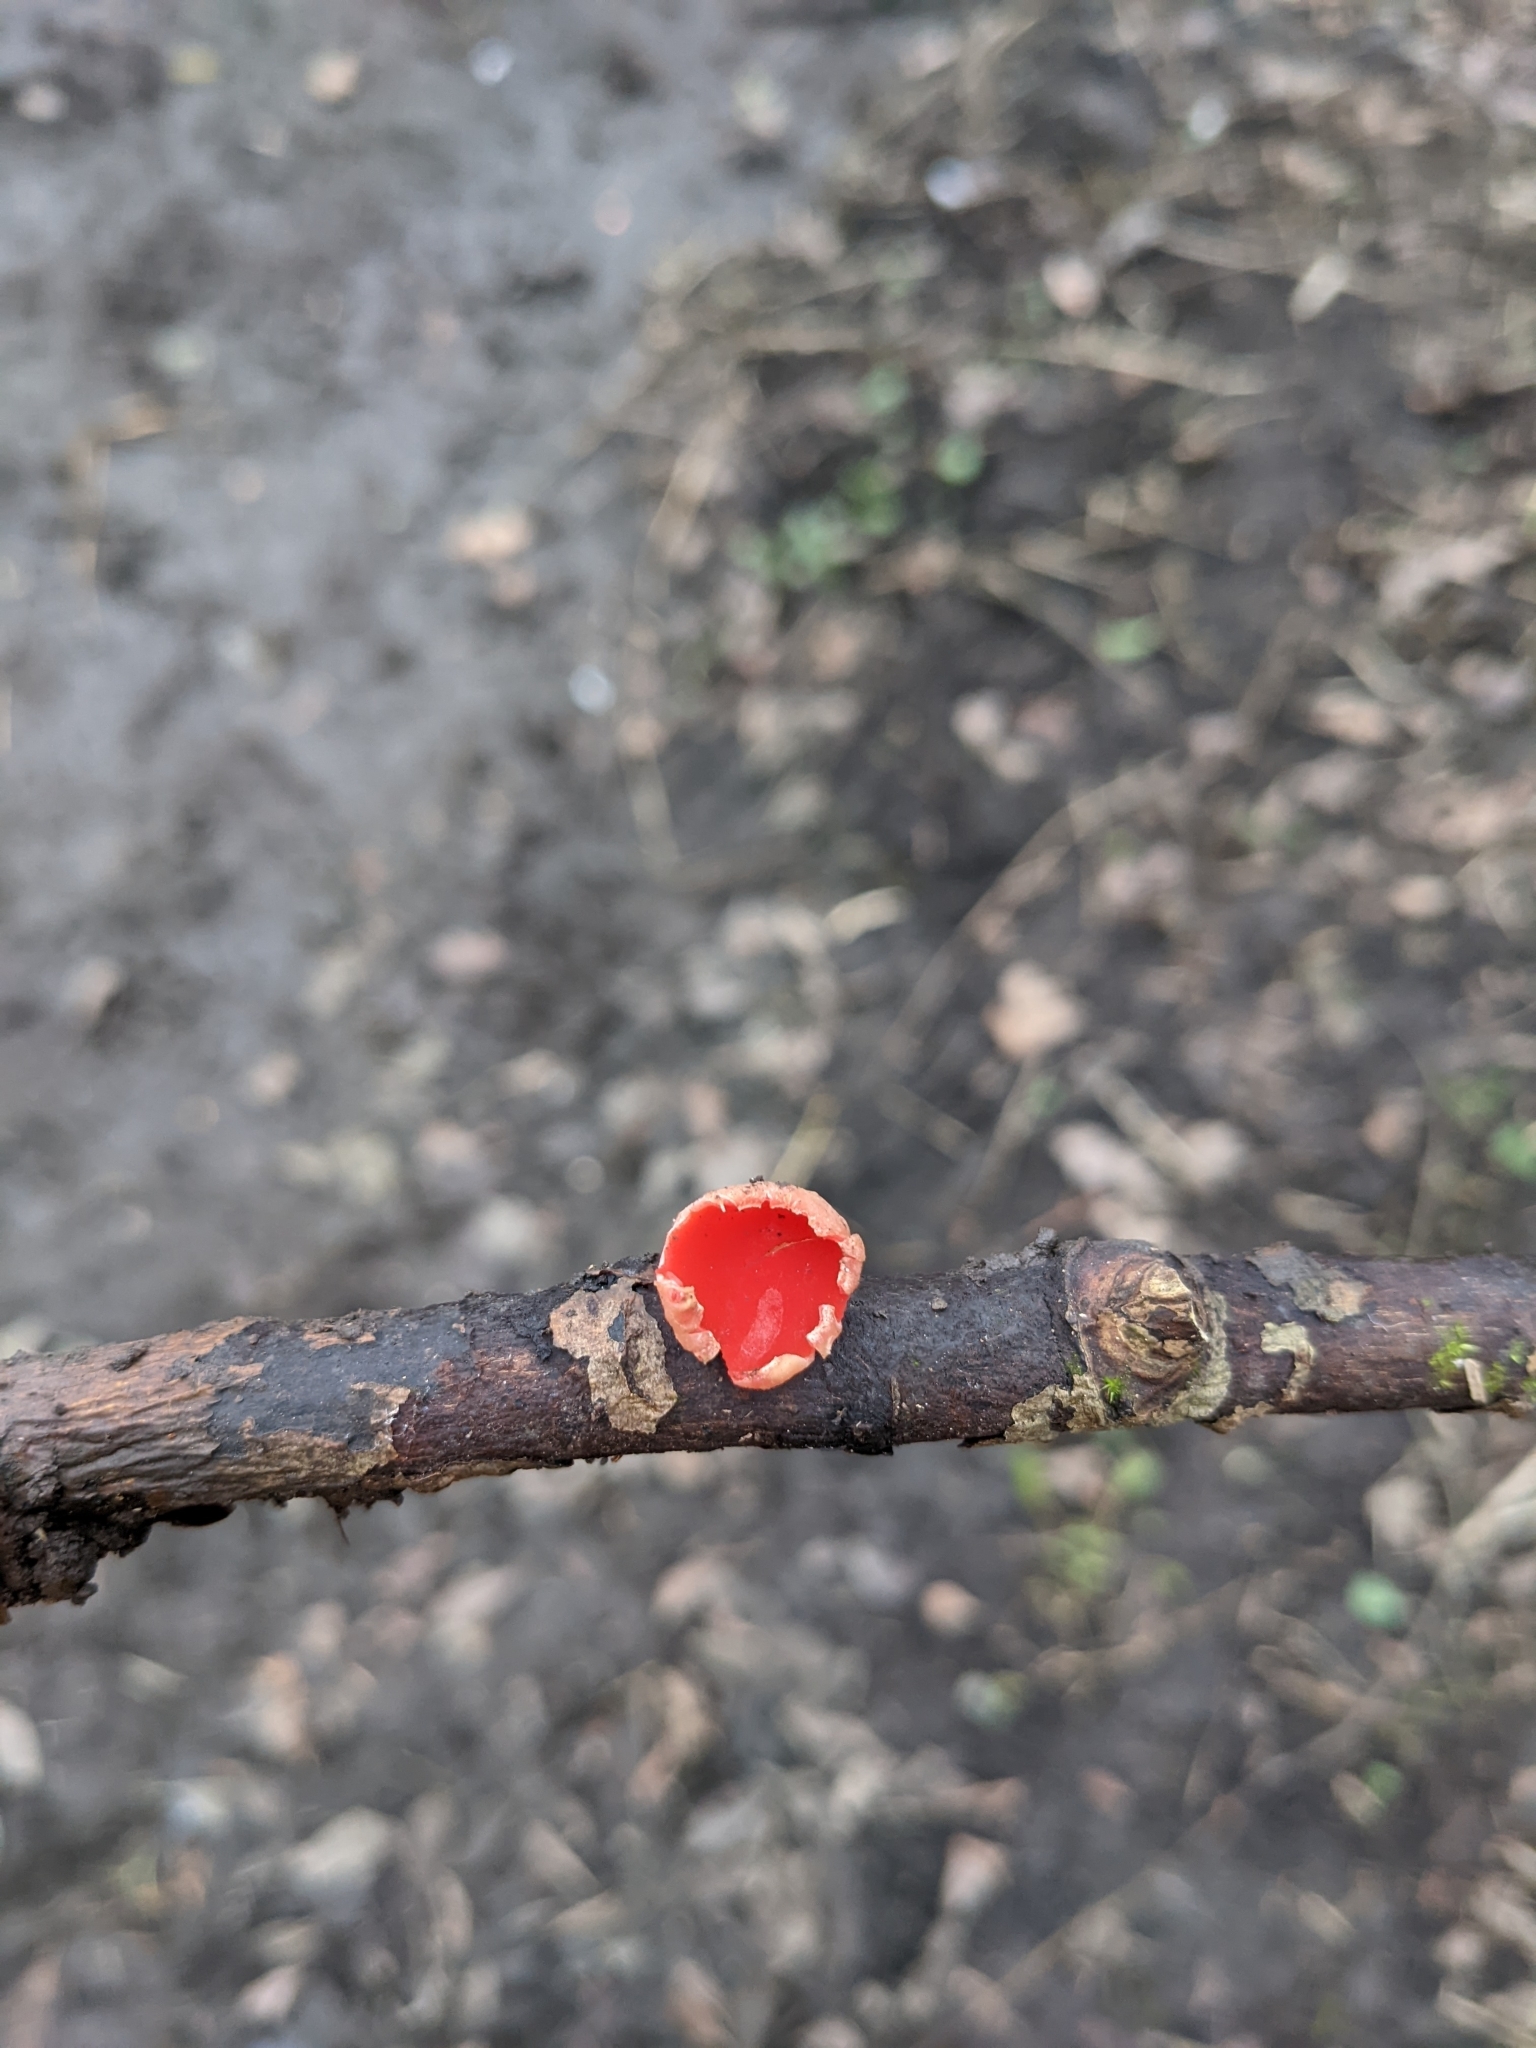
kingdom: Fungi
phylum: Ascomycota
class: Pezizomycetes
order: Pezizales
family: Sarcoscyphaceae
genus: Sarcoscypha
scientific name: Sarcoscypha
